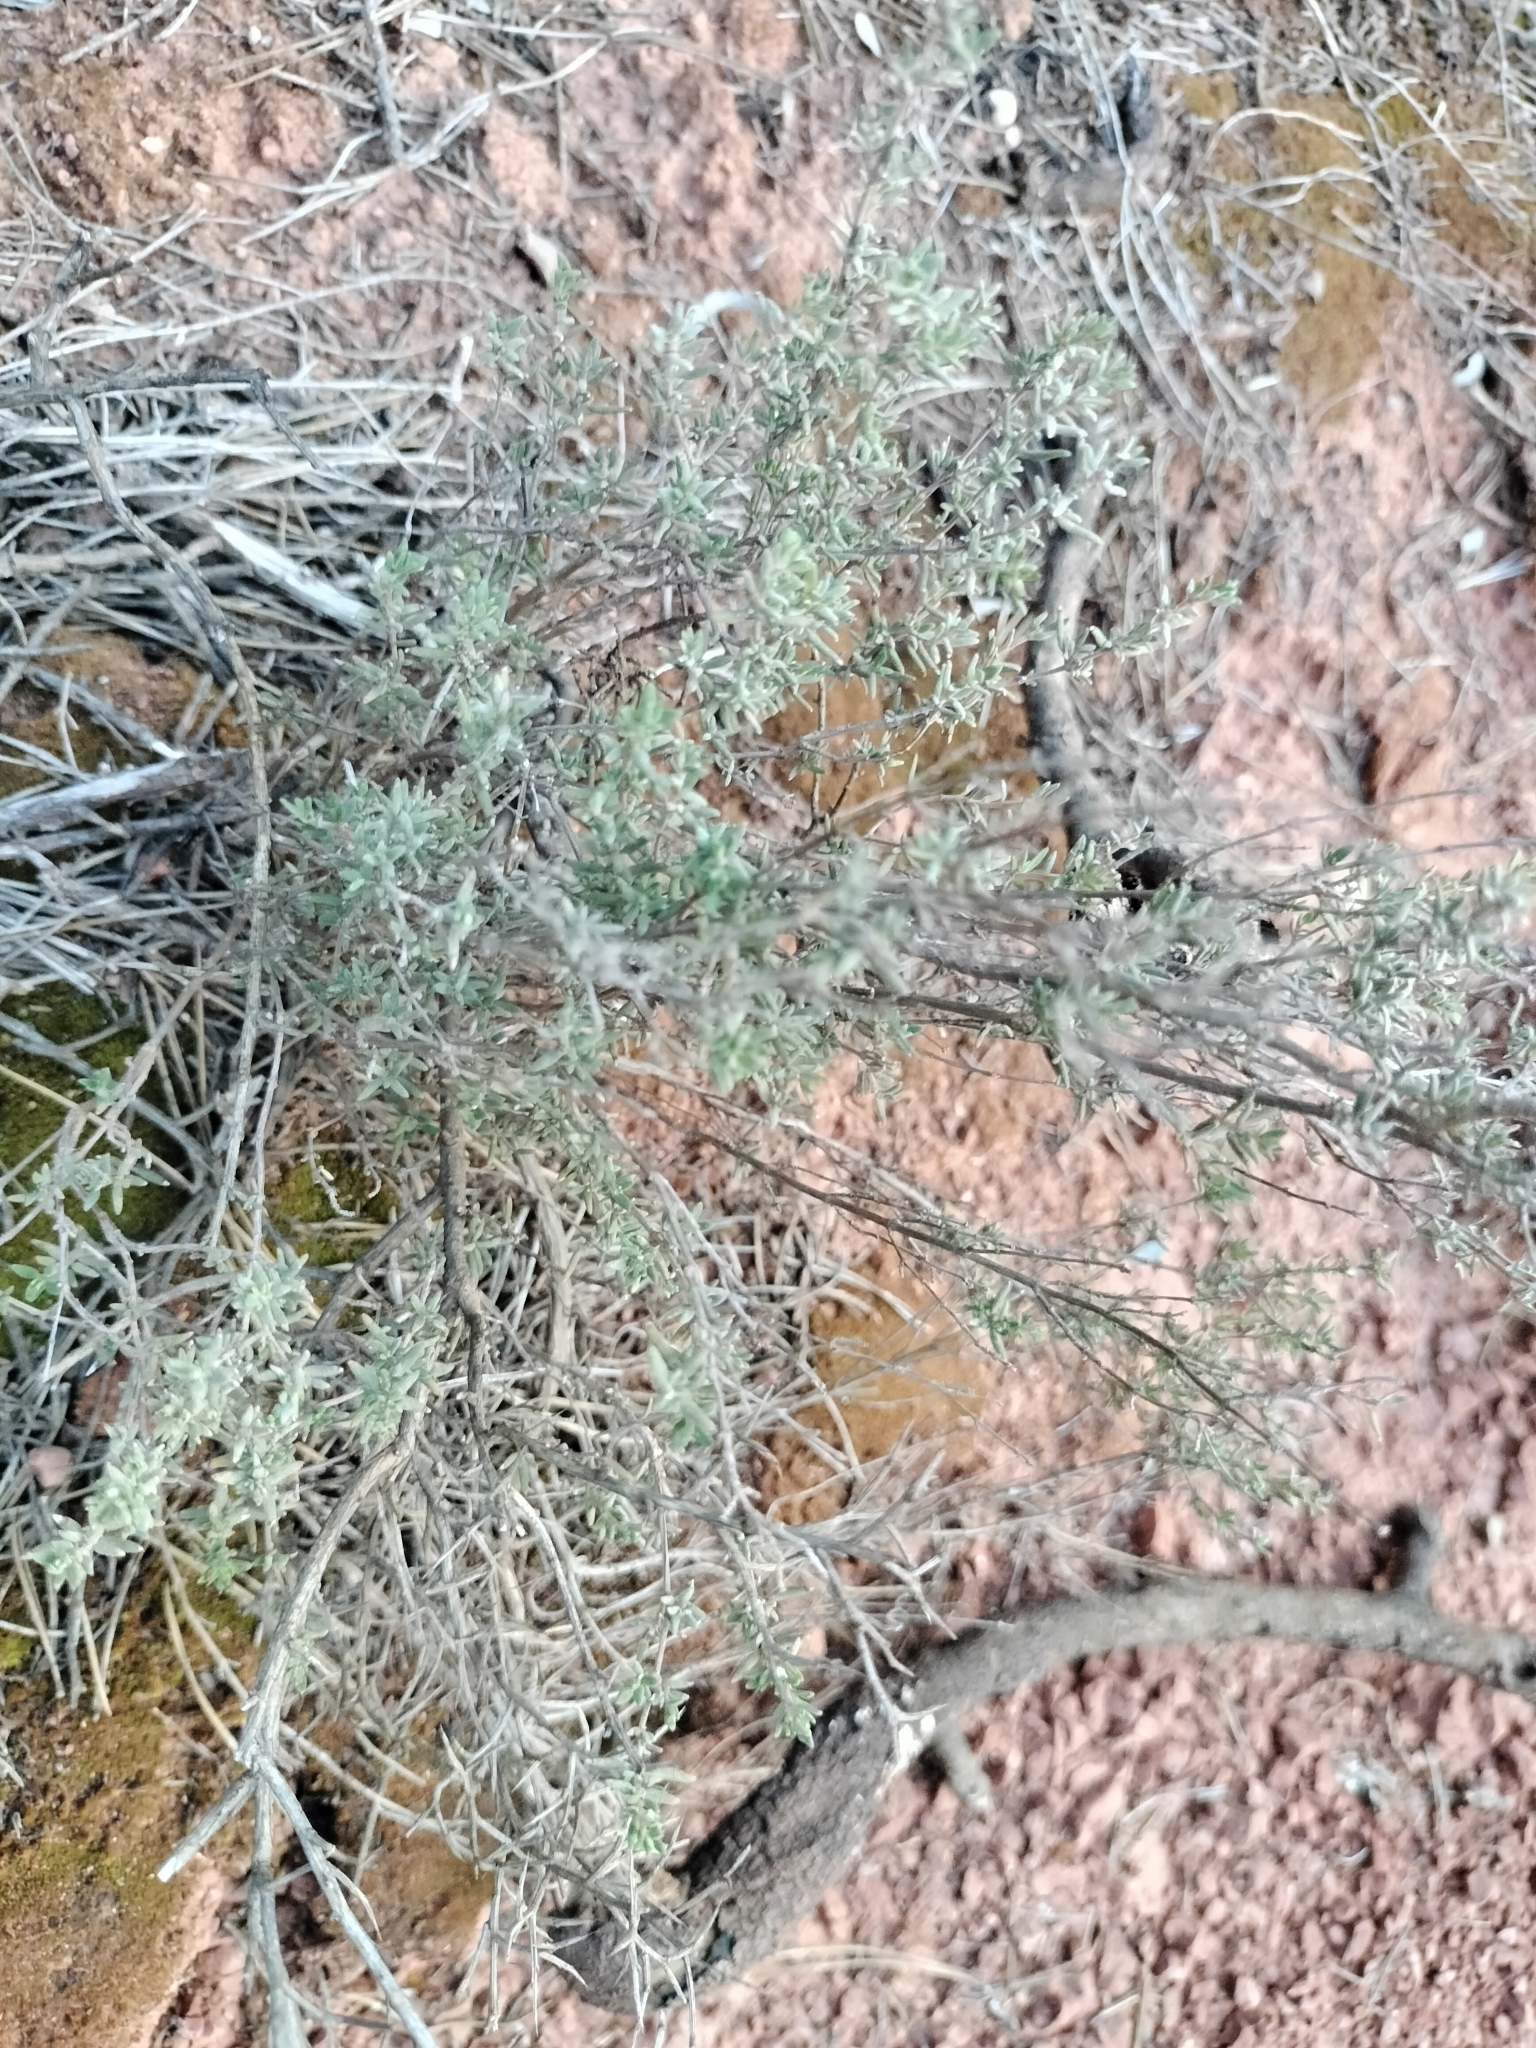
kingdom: Plantae
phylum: Tracheophyta
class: Magnoliopsida
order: Lamiales
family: Lamiaceae
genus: Thymus
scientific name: Thymus vulgaris
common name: Garden thyme
